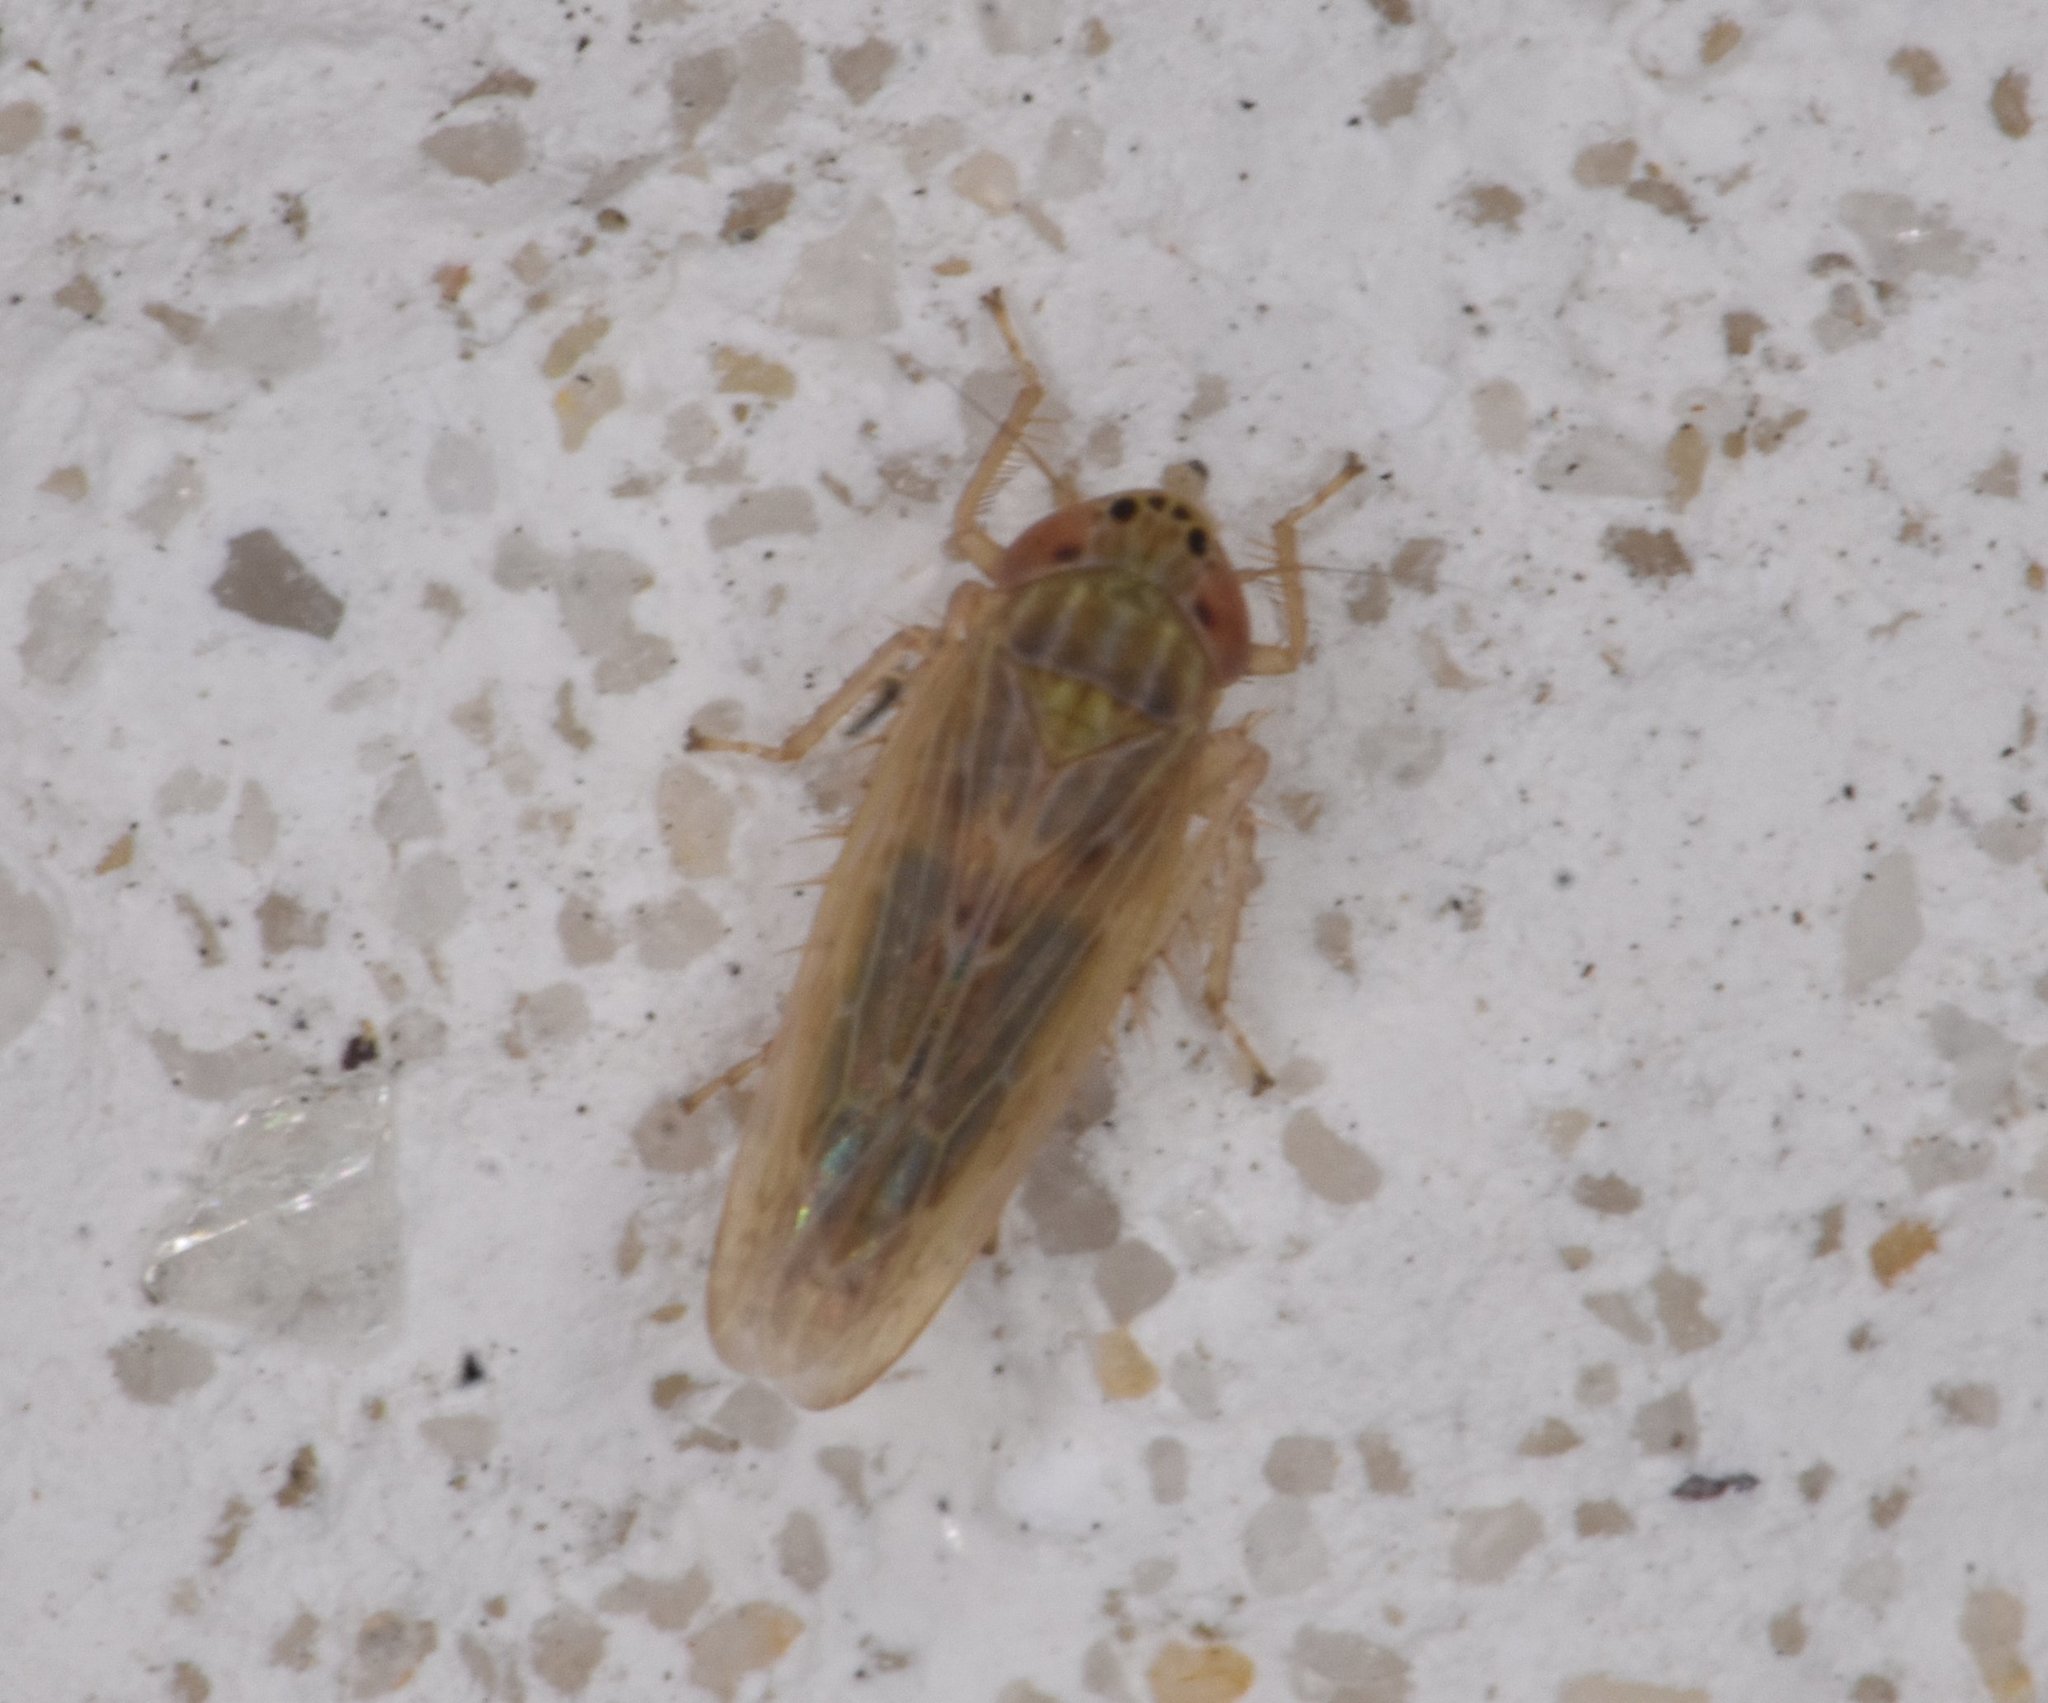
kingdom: Animalia
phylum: Arthropoda
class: Insecta
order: Hemiptera
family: Cicadellidae
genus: Graminella
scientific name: Graminella sonora
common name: Lesser lawn leafhopper
